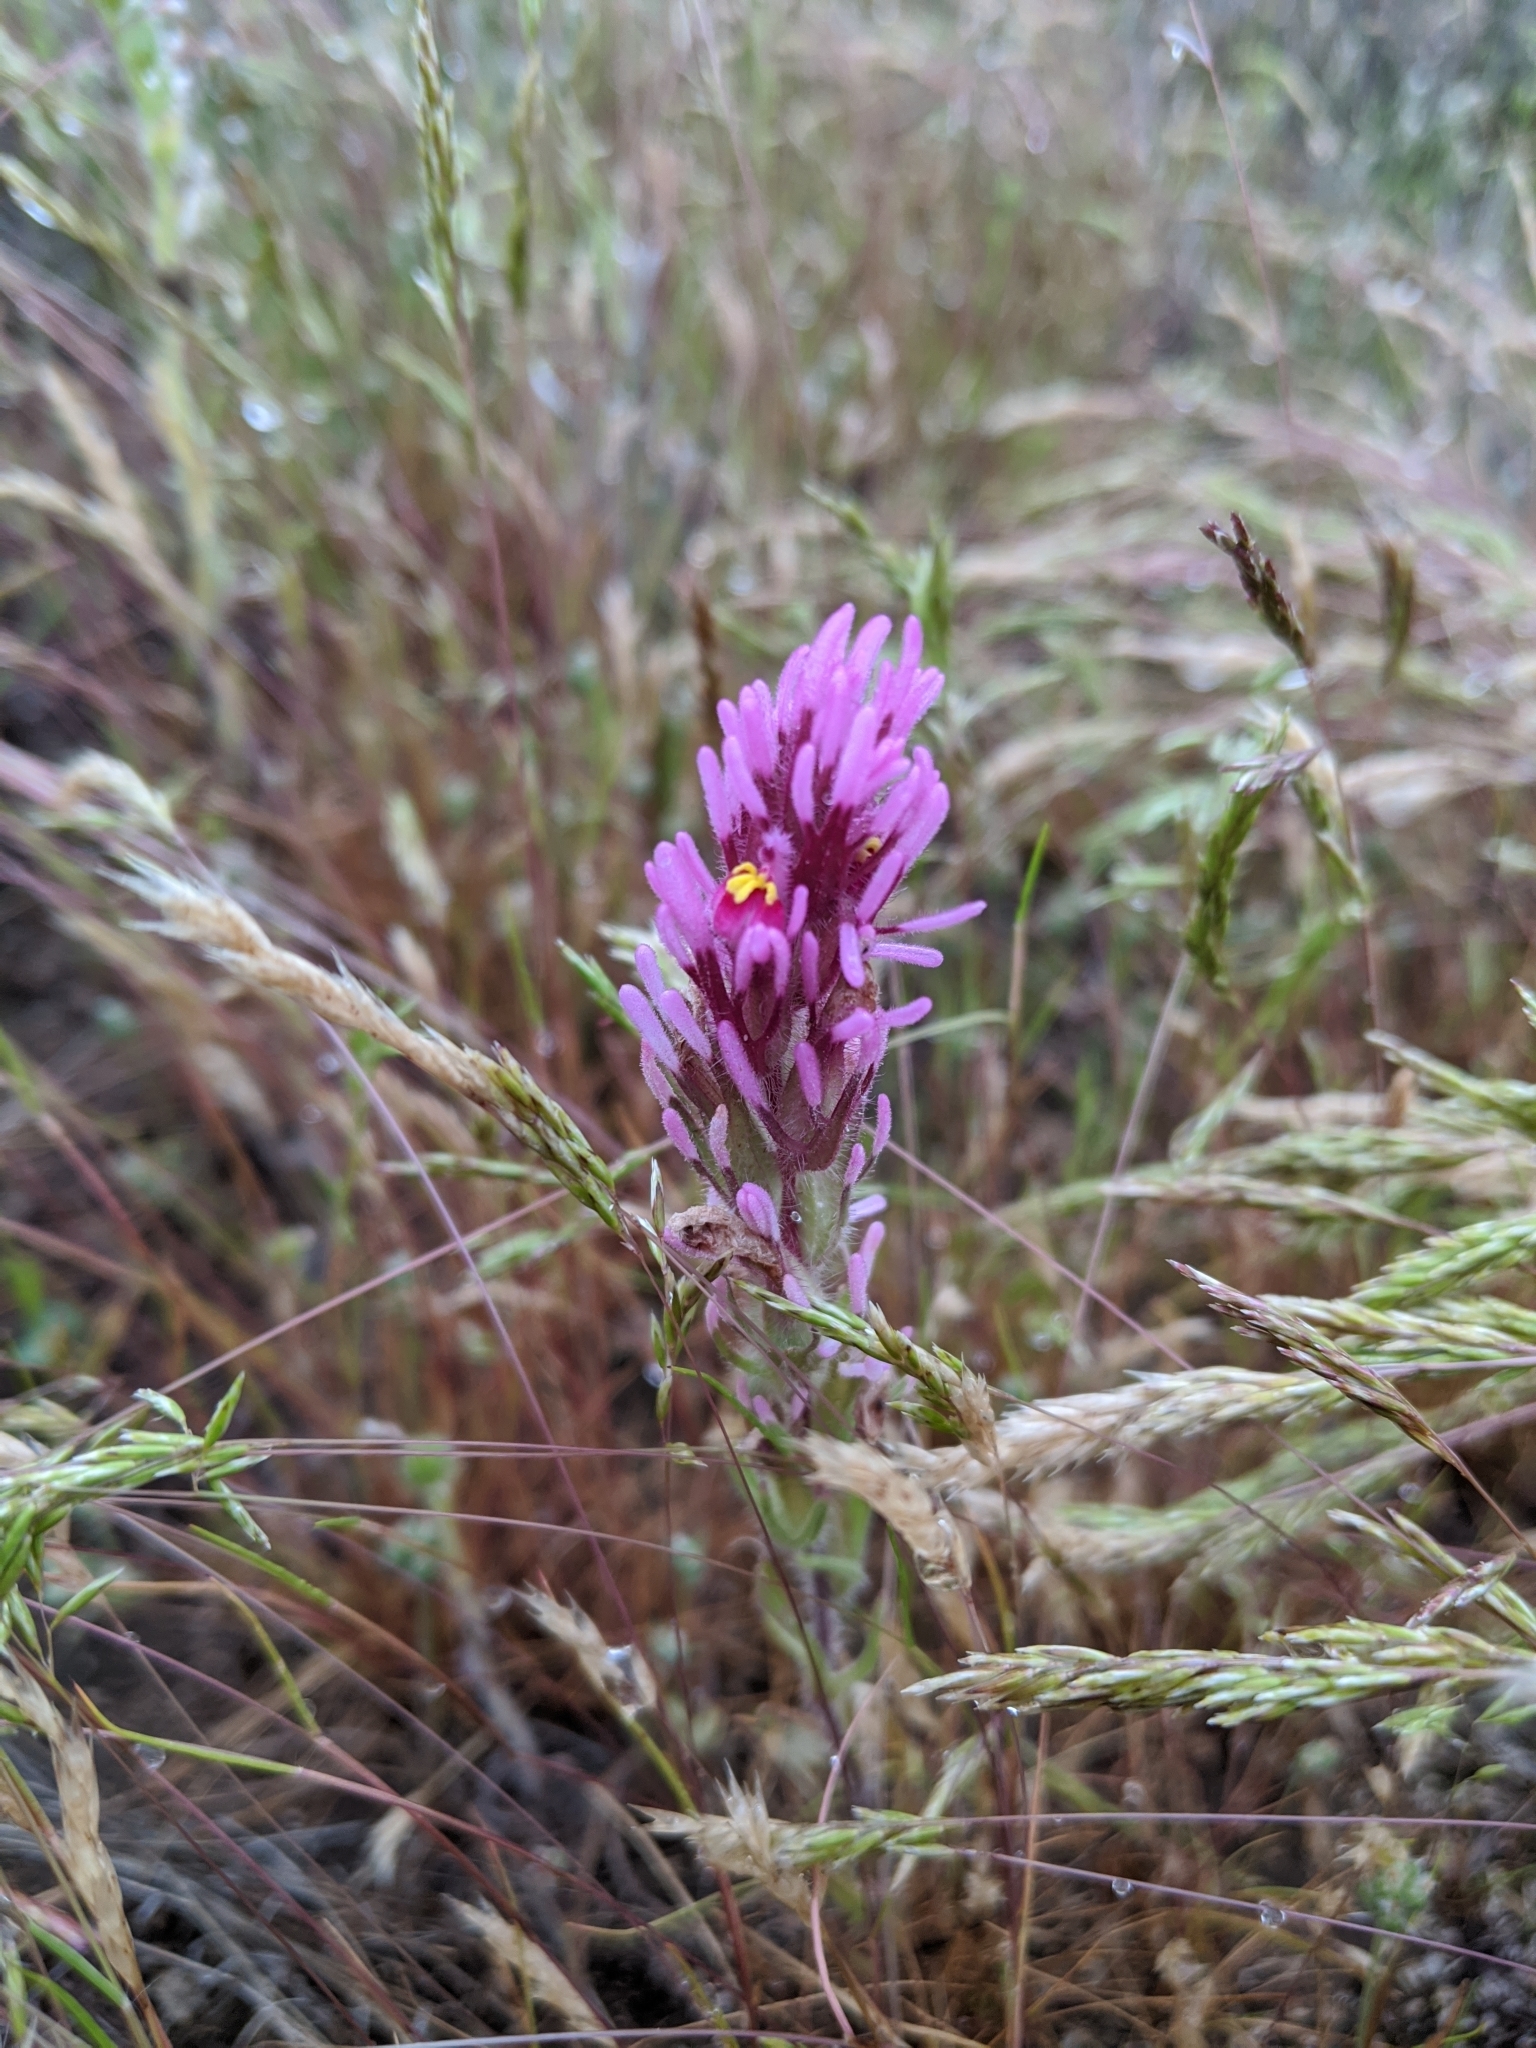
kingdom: Plantae
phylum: Tracheophyta
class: Magnoliopsida
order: Lamiales
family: Orobanchaceae
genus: Castilleja
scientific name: Castilleja exserta
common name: Purple owl-clover
